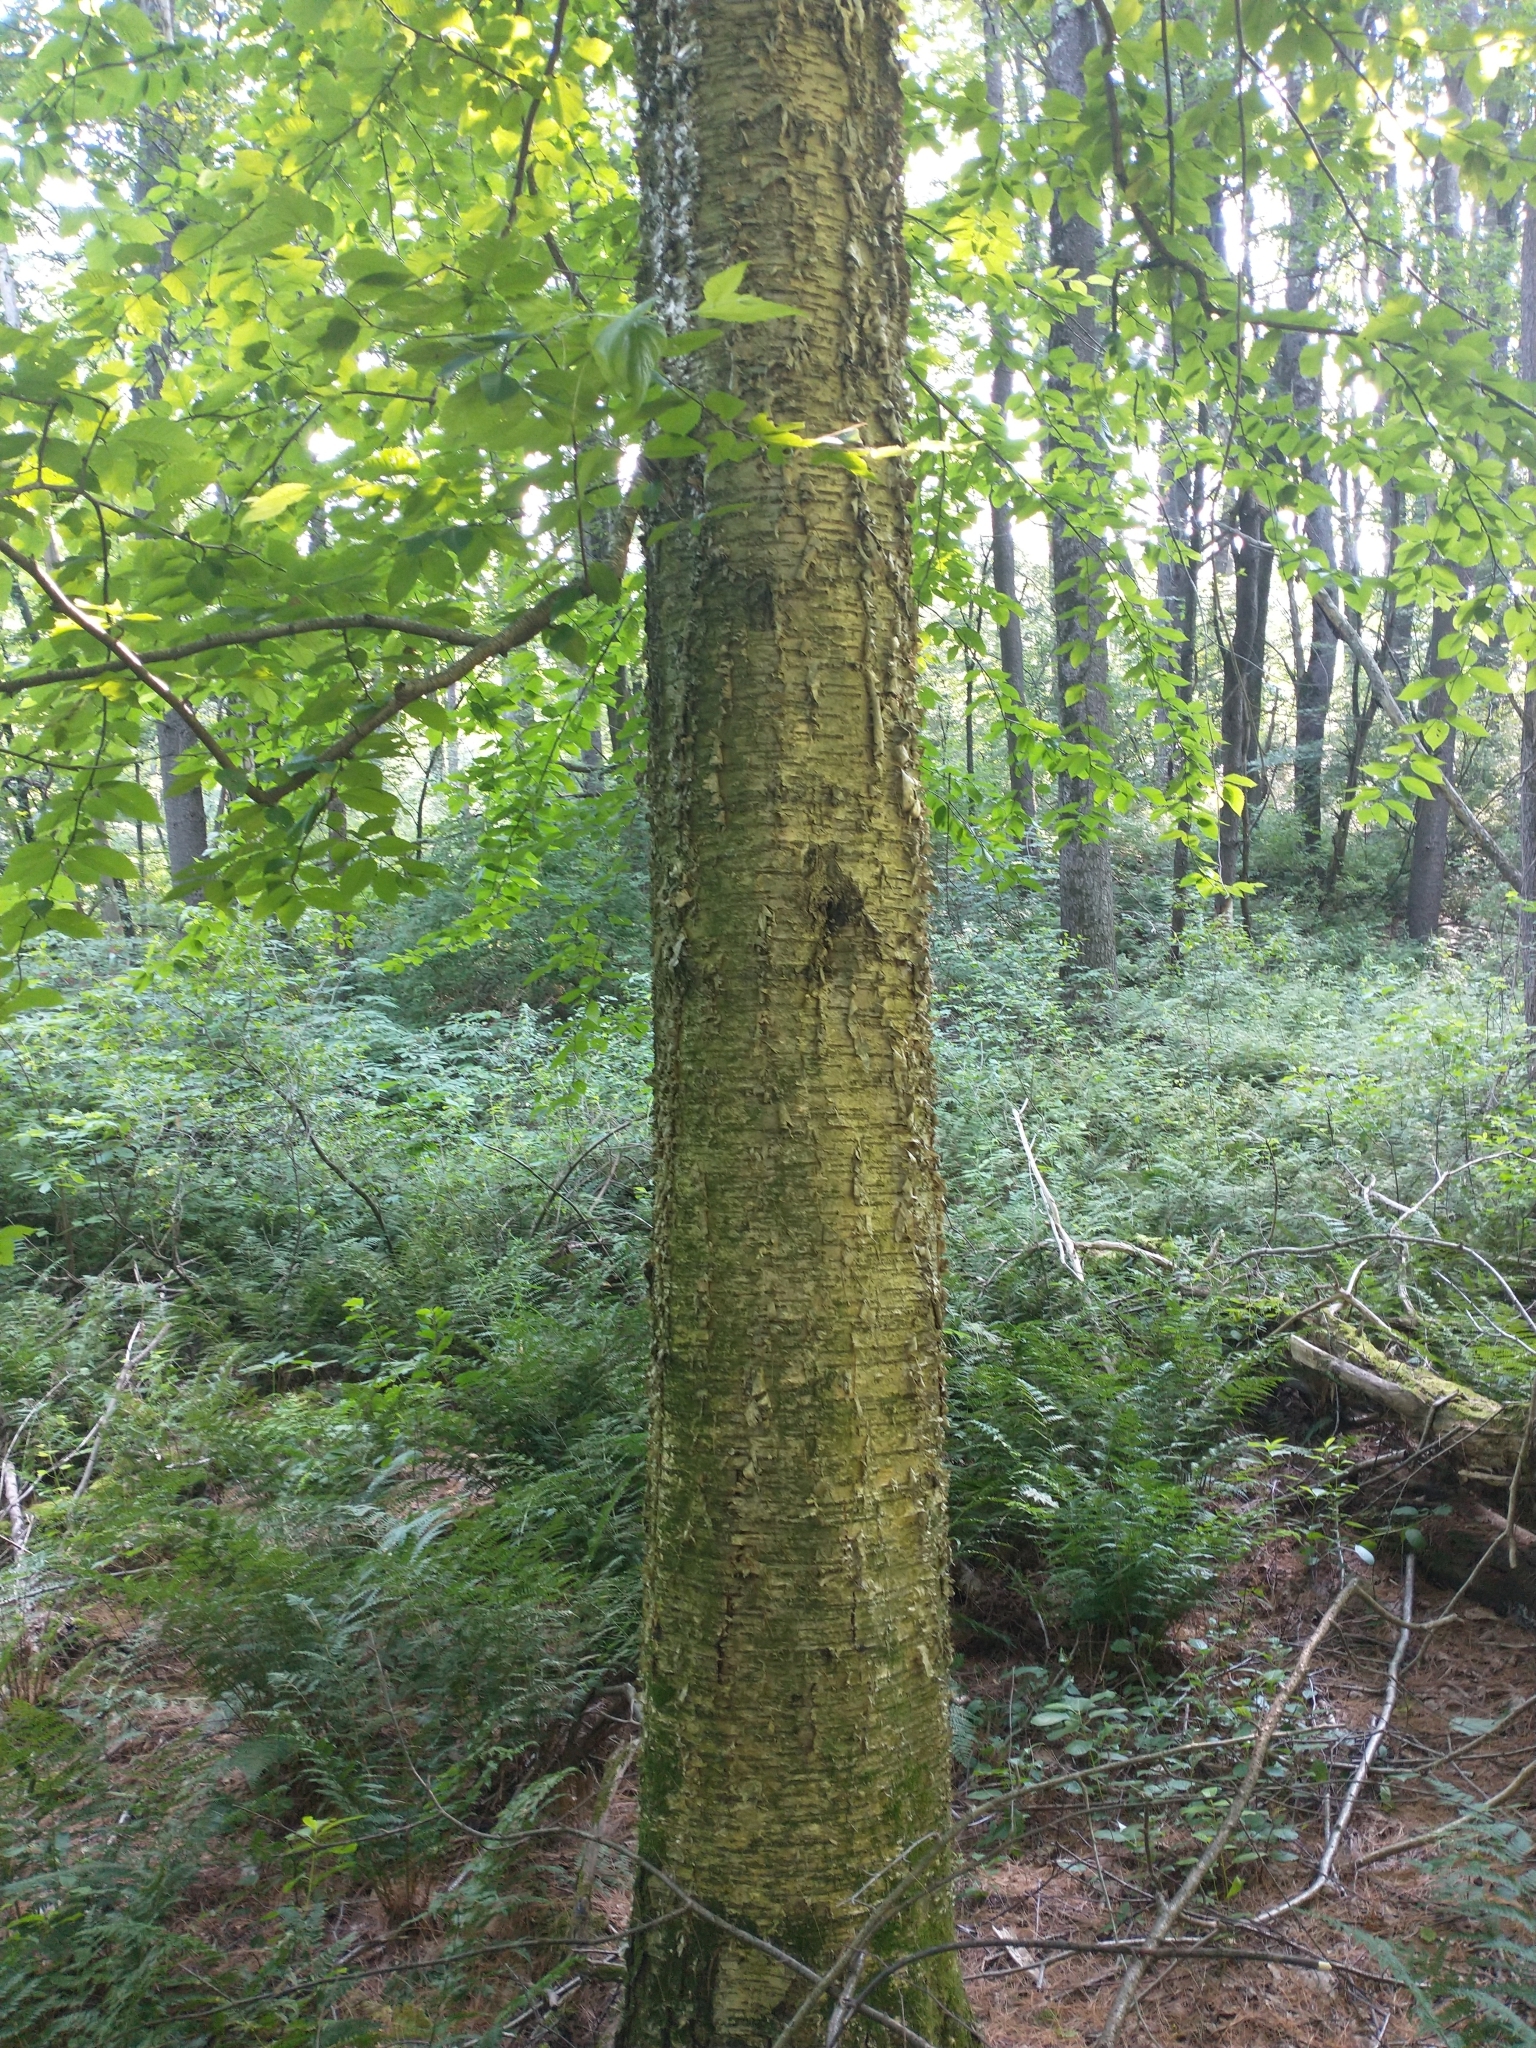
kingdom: Plantae
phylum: Tracheophyta
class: Magnoliopsida
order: Fagales
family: Betulaceae
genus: Betula
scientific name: Betula alleghaniensis
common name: Yellow birch
